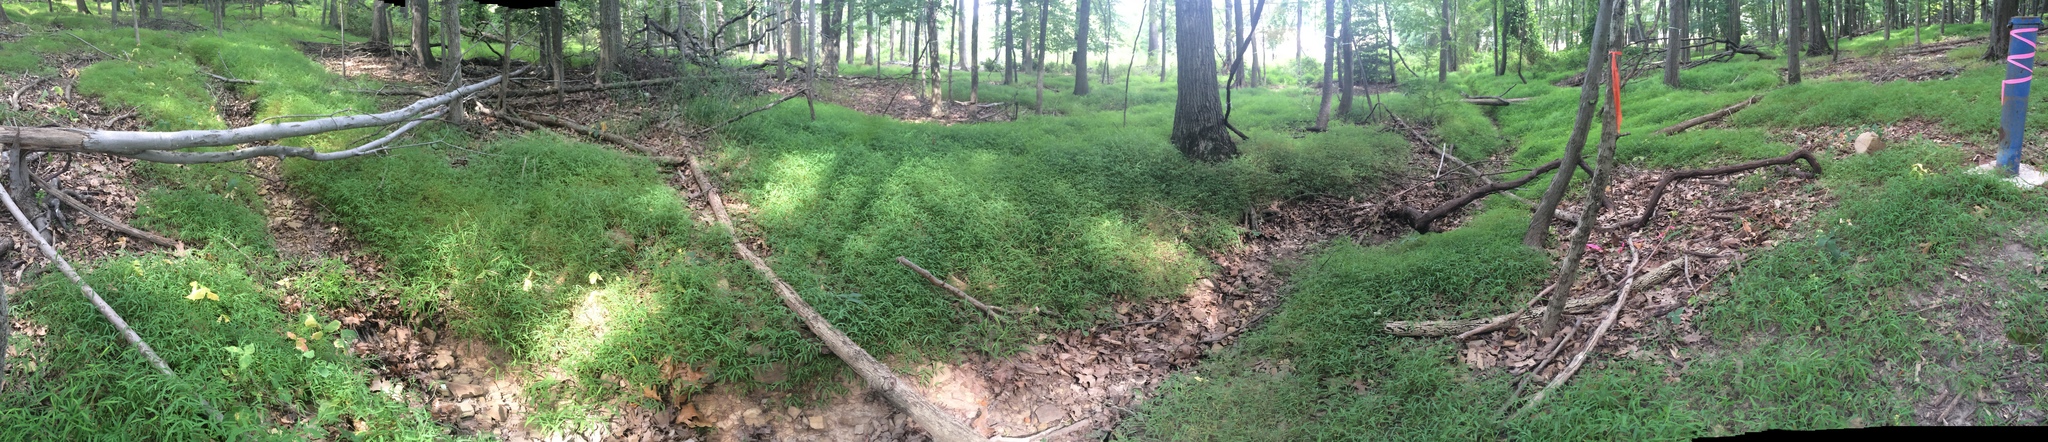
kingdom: Plantae
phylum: Tracheophyta
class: Liliopsida
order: Poales
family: Poaceae
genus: Microstegium
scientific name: Microstegium vimineum
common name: Japanese stiltgrass
